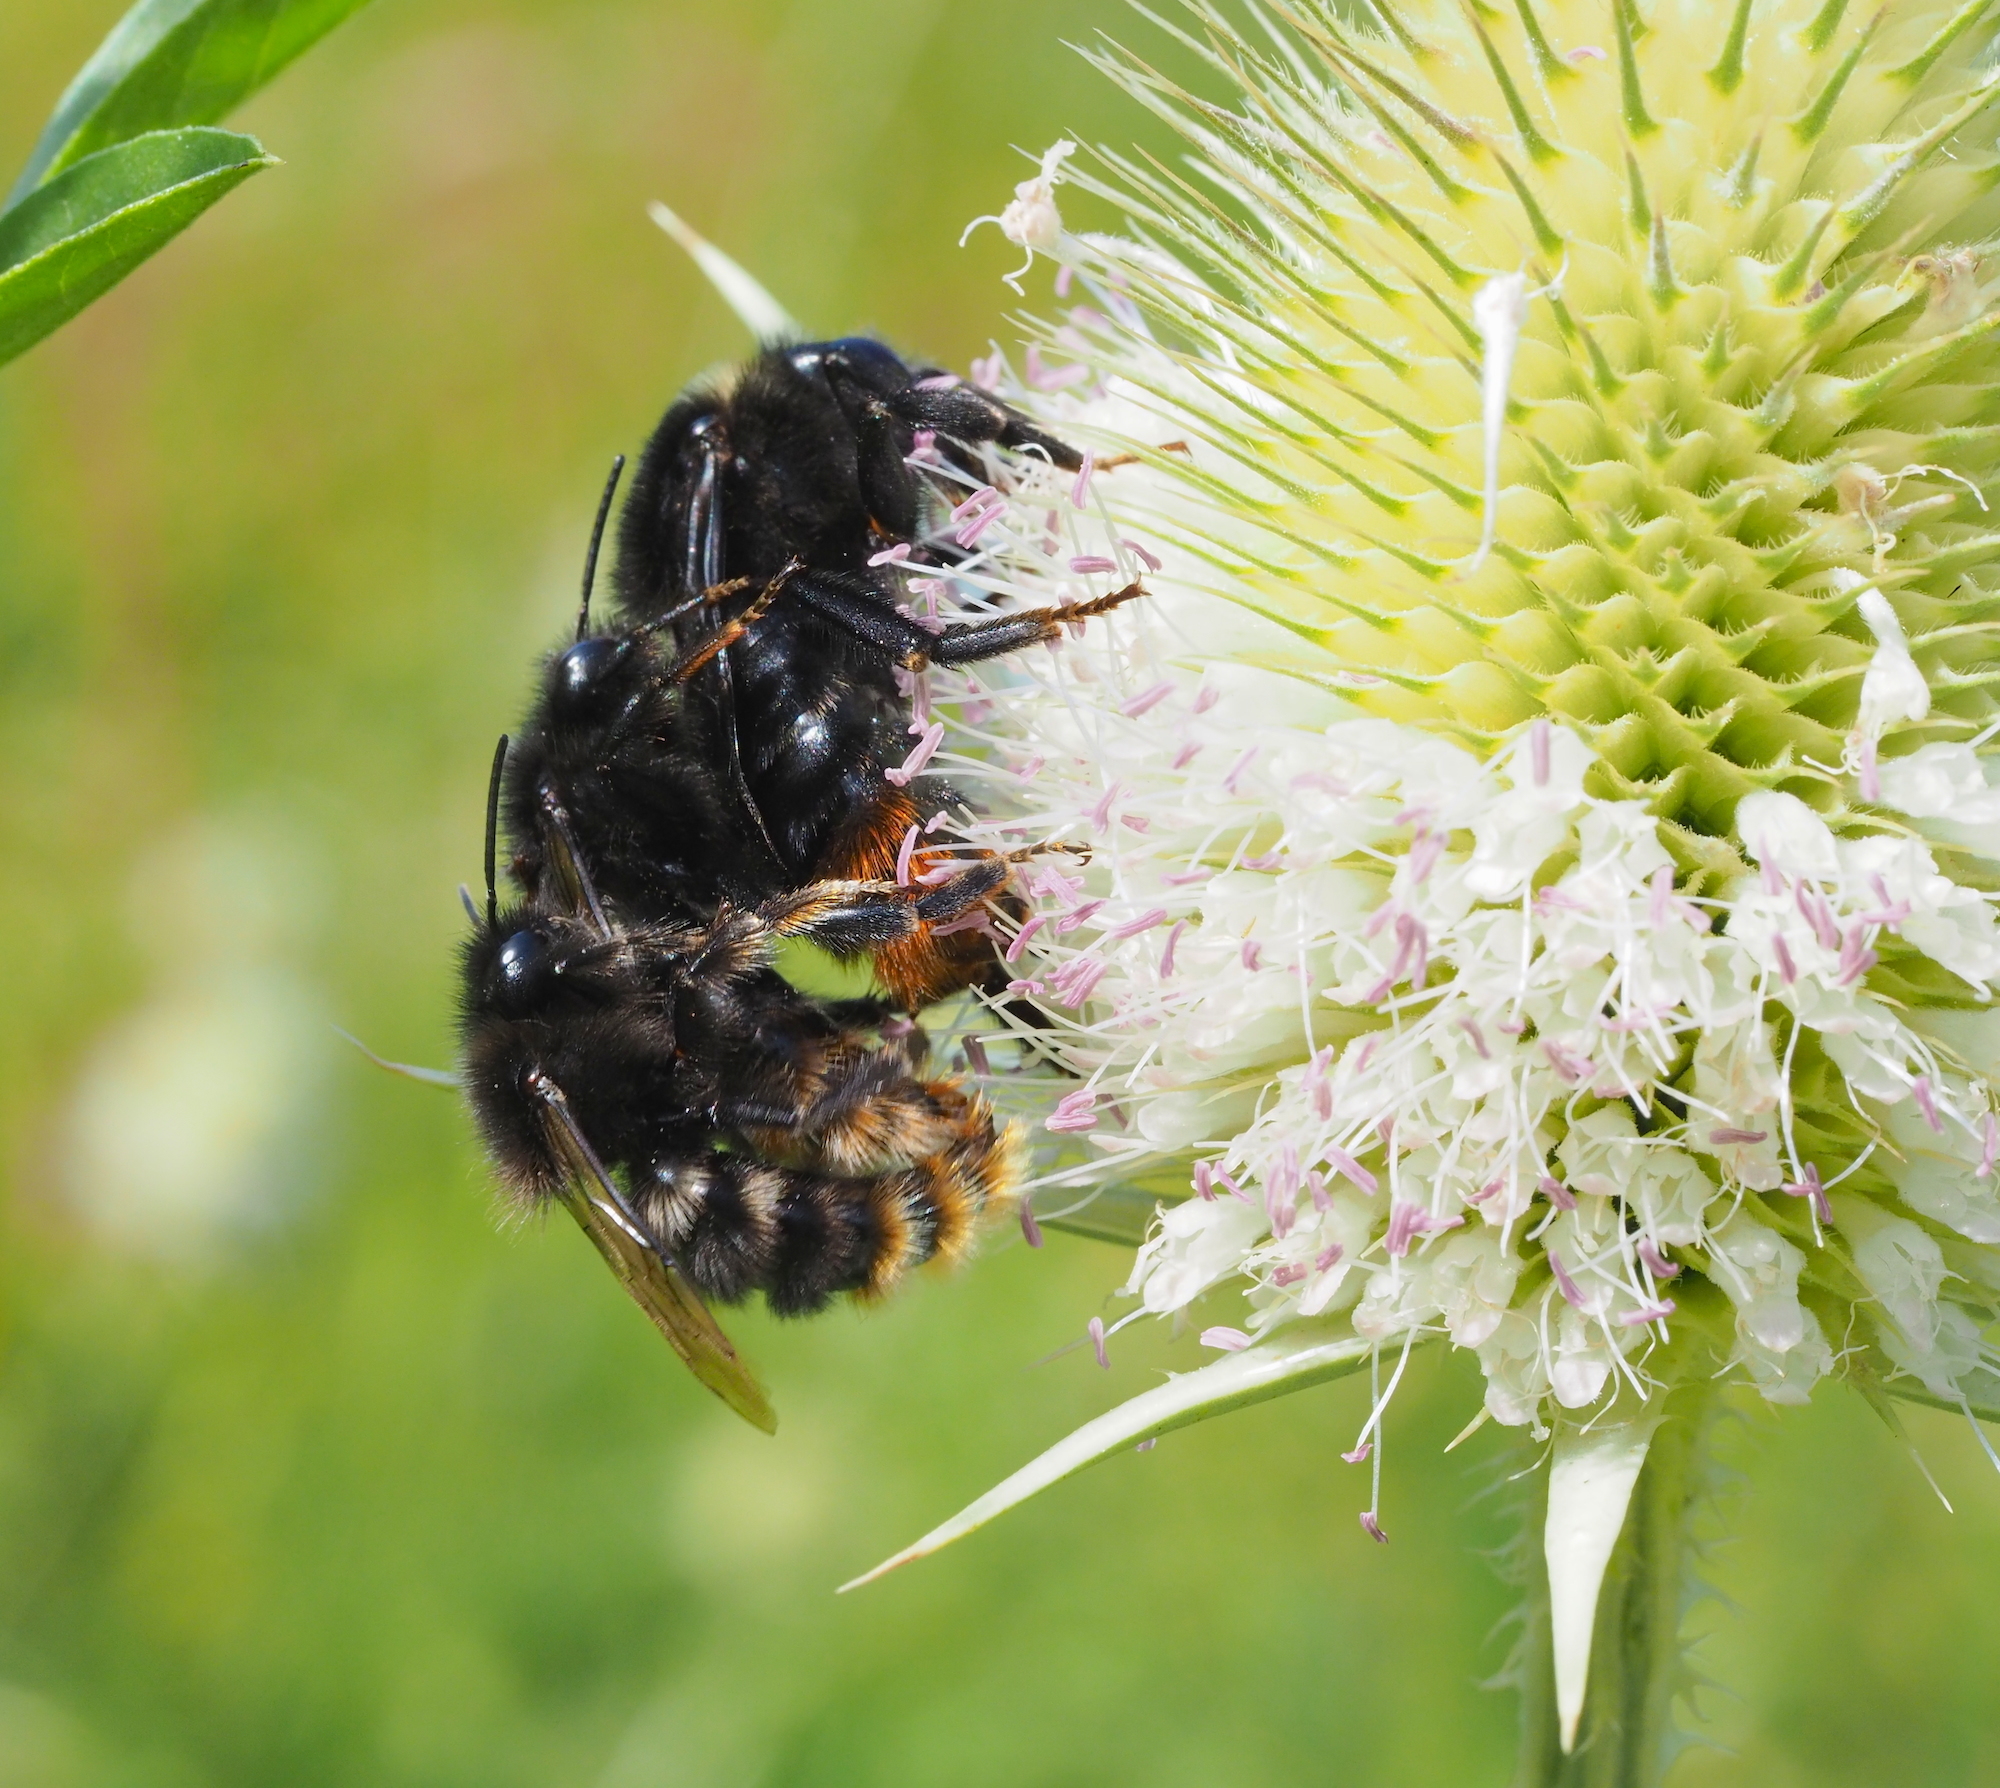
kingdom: Animalia
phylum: Arthropoda
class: Insecta
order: Hymenoptera
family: Apidae
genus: Bombus
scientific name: Bombus rupestris
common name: Hill cuckoo-bee
